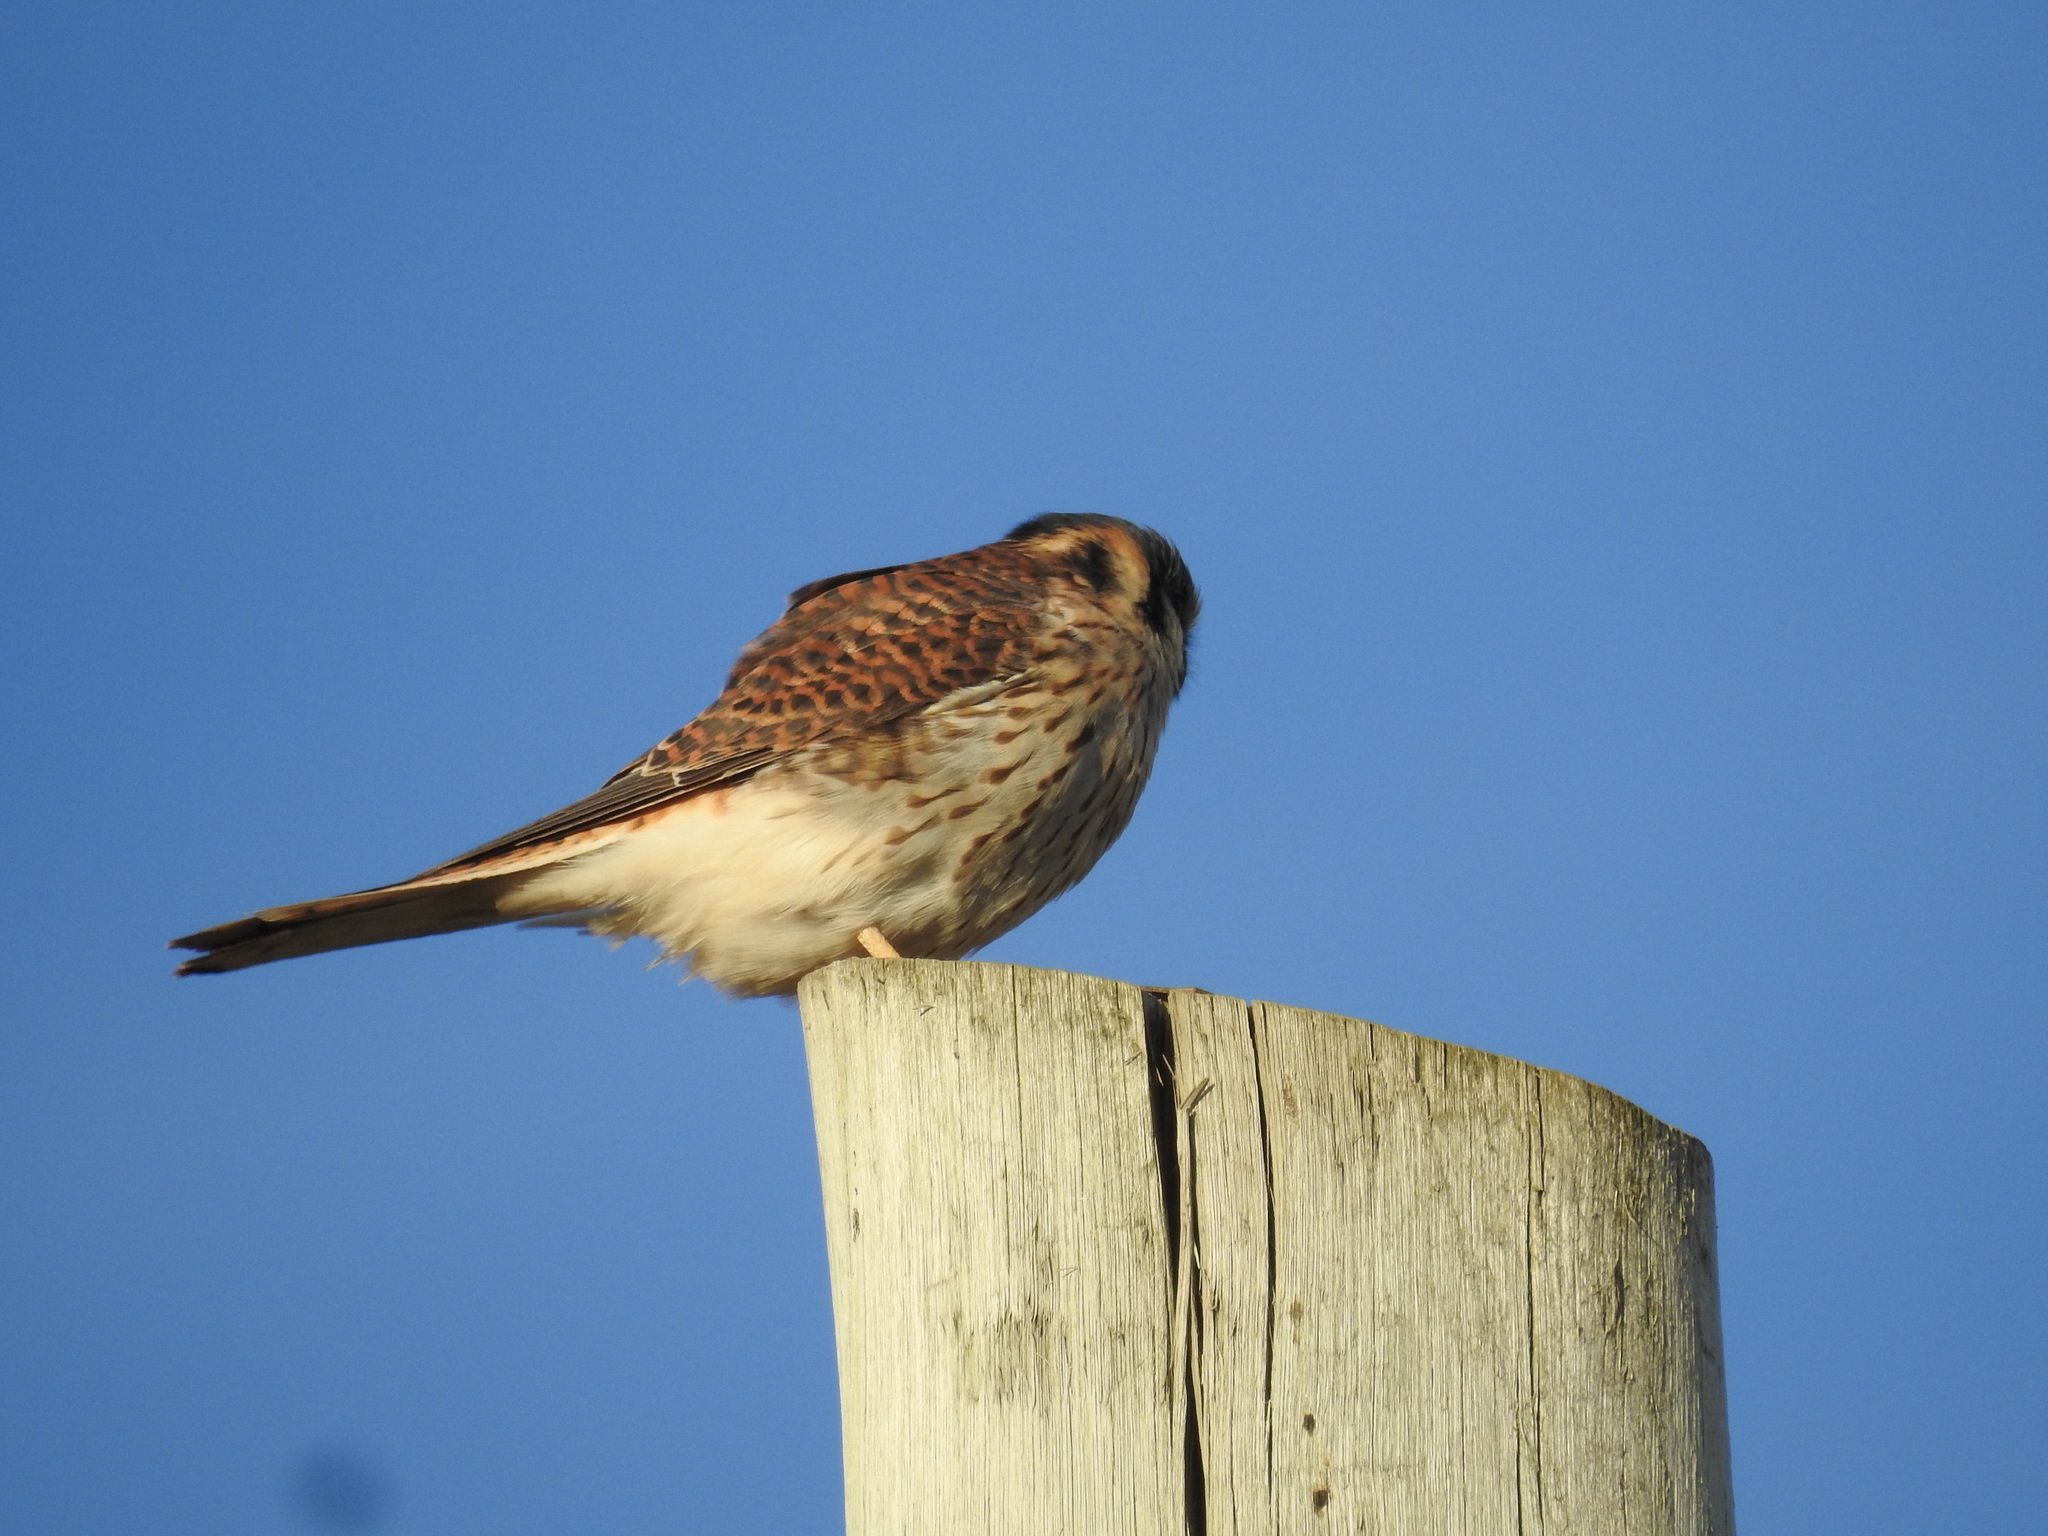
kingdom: Animalia
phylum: Chordata
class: Aves
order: Falconiformes
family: Falconidae
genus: Falco
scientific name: Falco sparverius
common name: American kestrel
